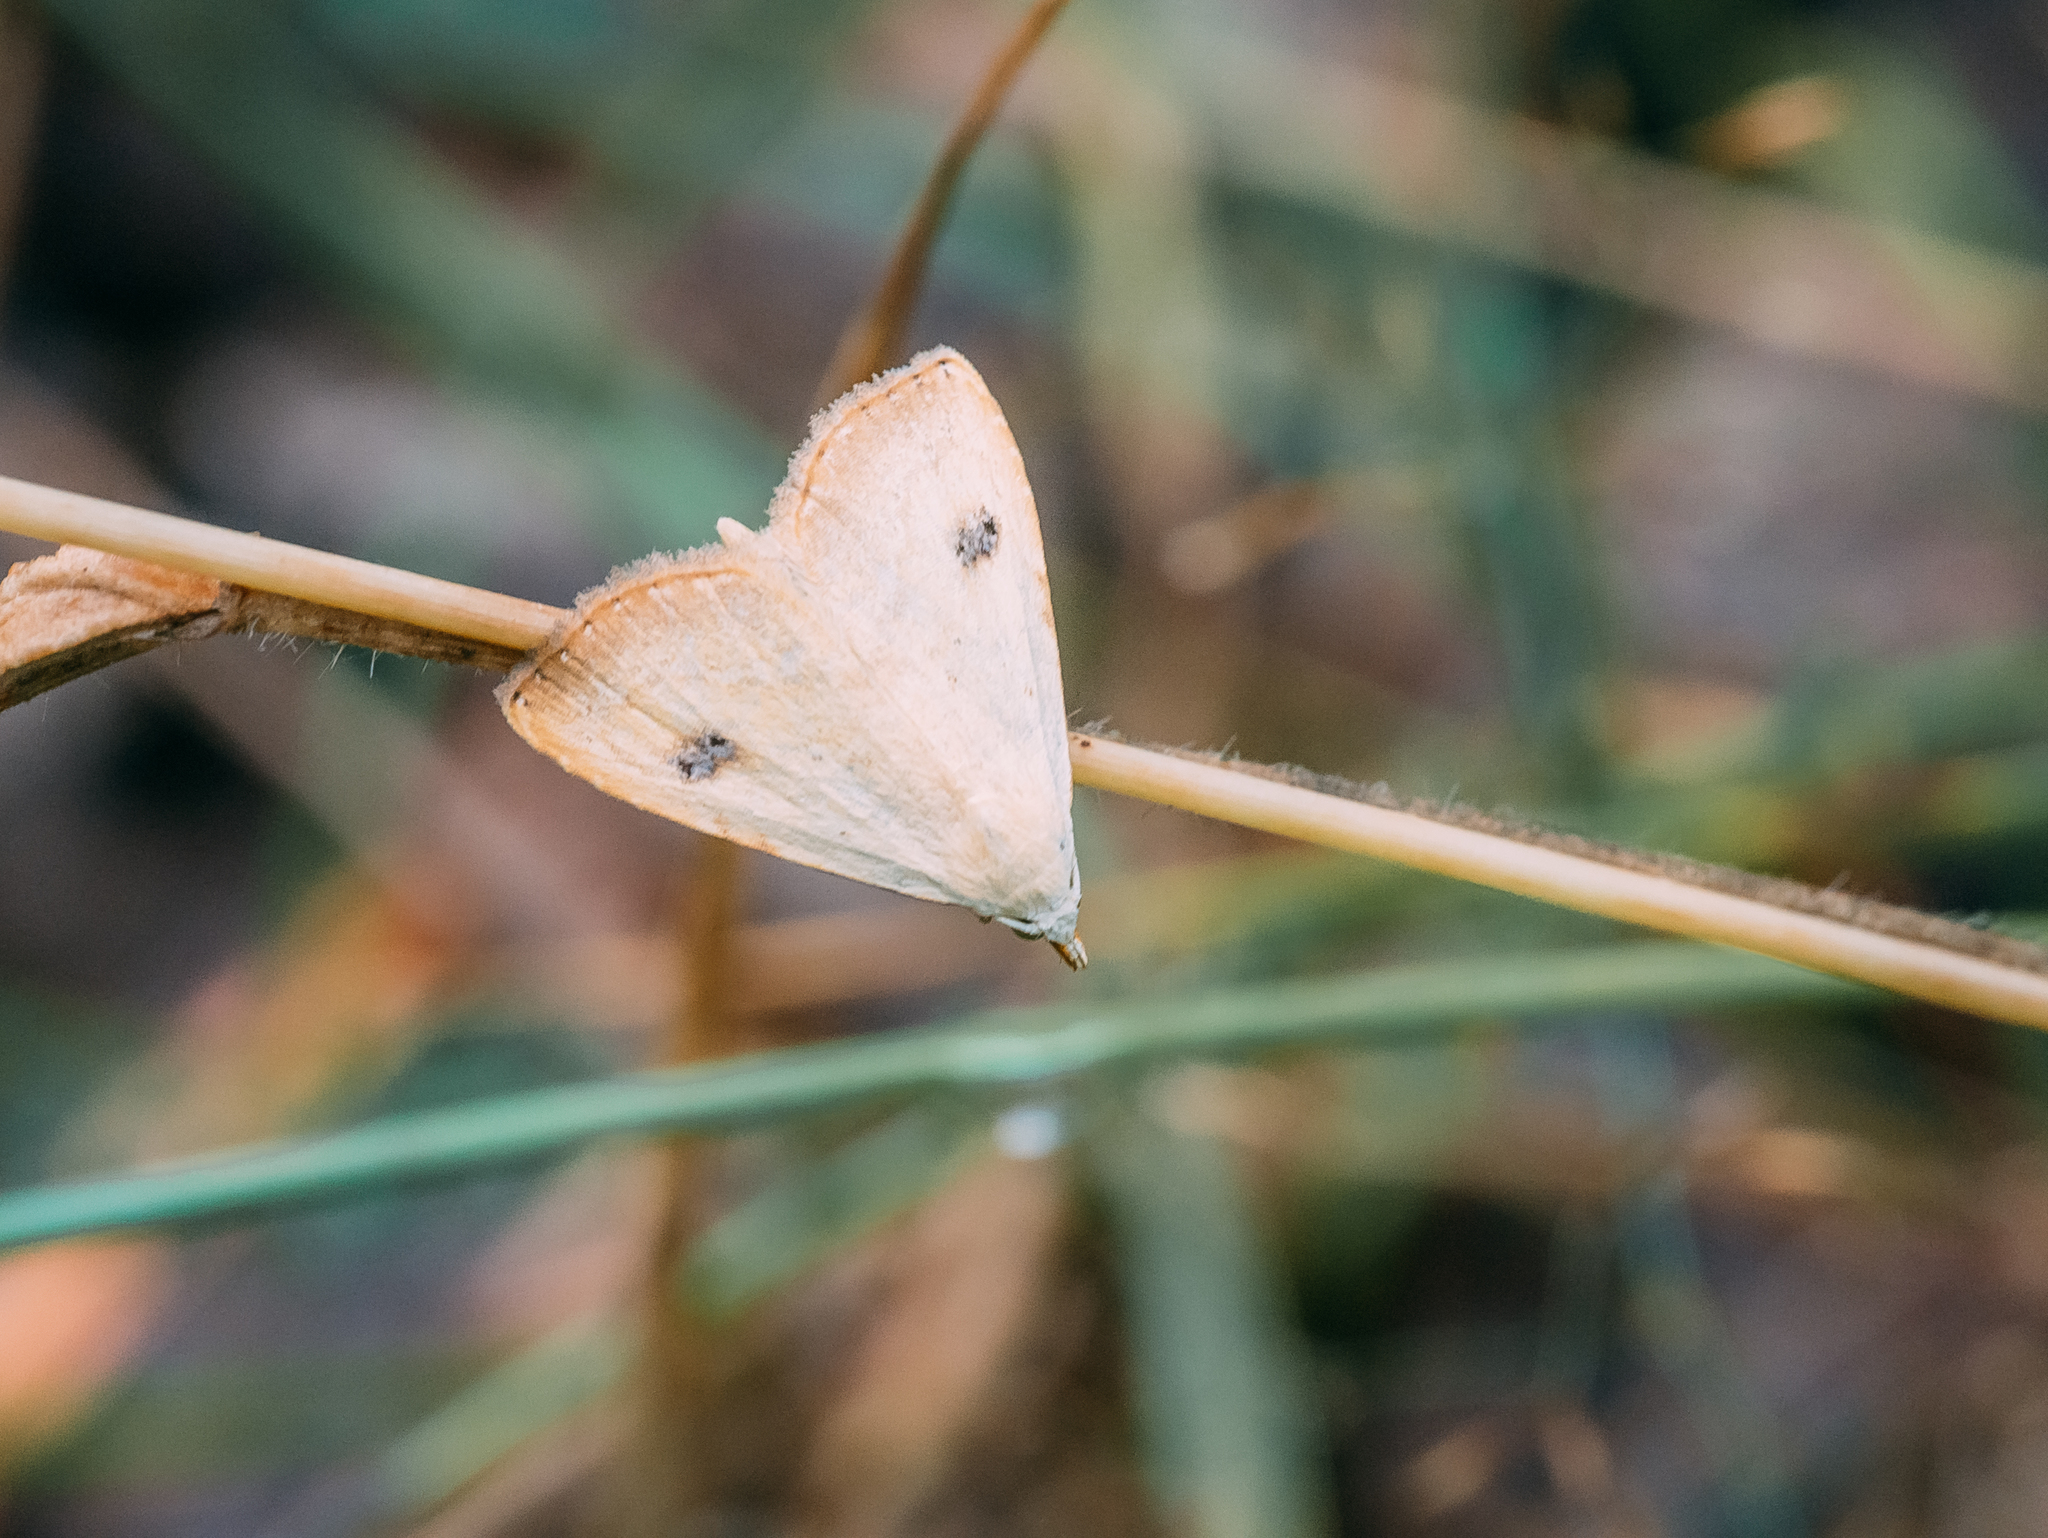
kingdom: Animalia
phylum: Arthropoda
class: Insecta
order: Lepidoptera
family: Erebidae
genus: Rivula
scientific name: Rivula sericealis
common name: Straw dot
